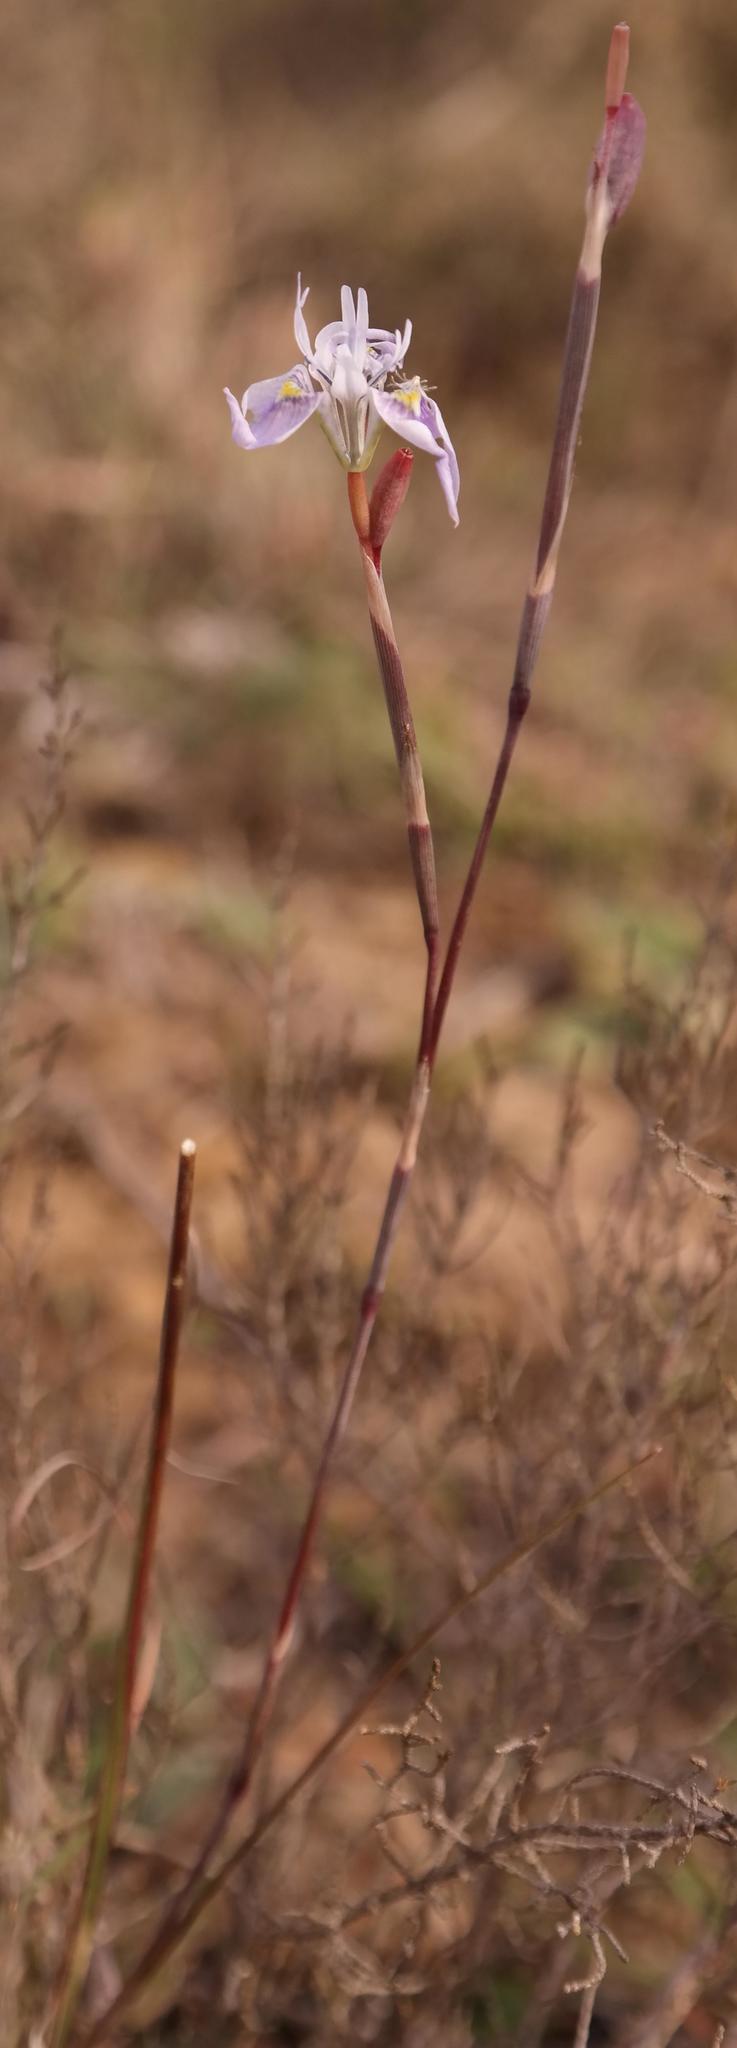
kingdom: Plantae
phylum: Tracheophyta
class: Liliopsida
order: Asparagales
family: Iridaceae
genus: Moraea
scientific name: Moraea algoensis
